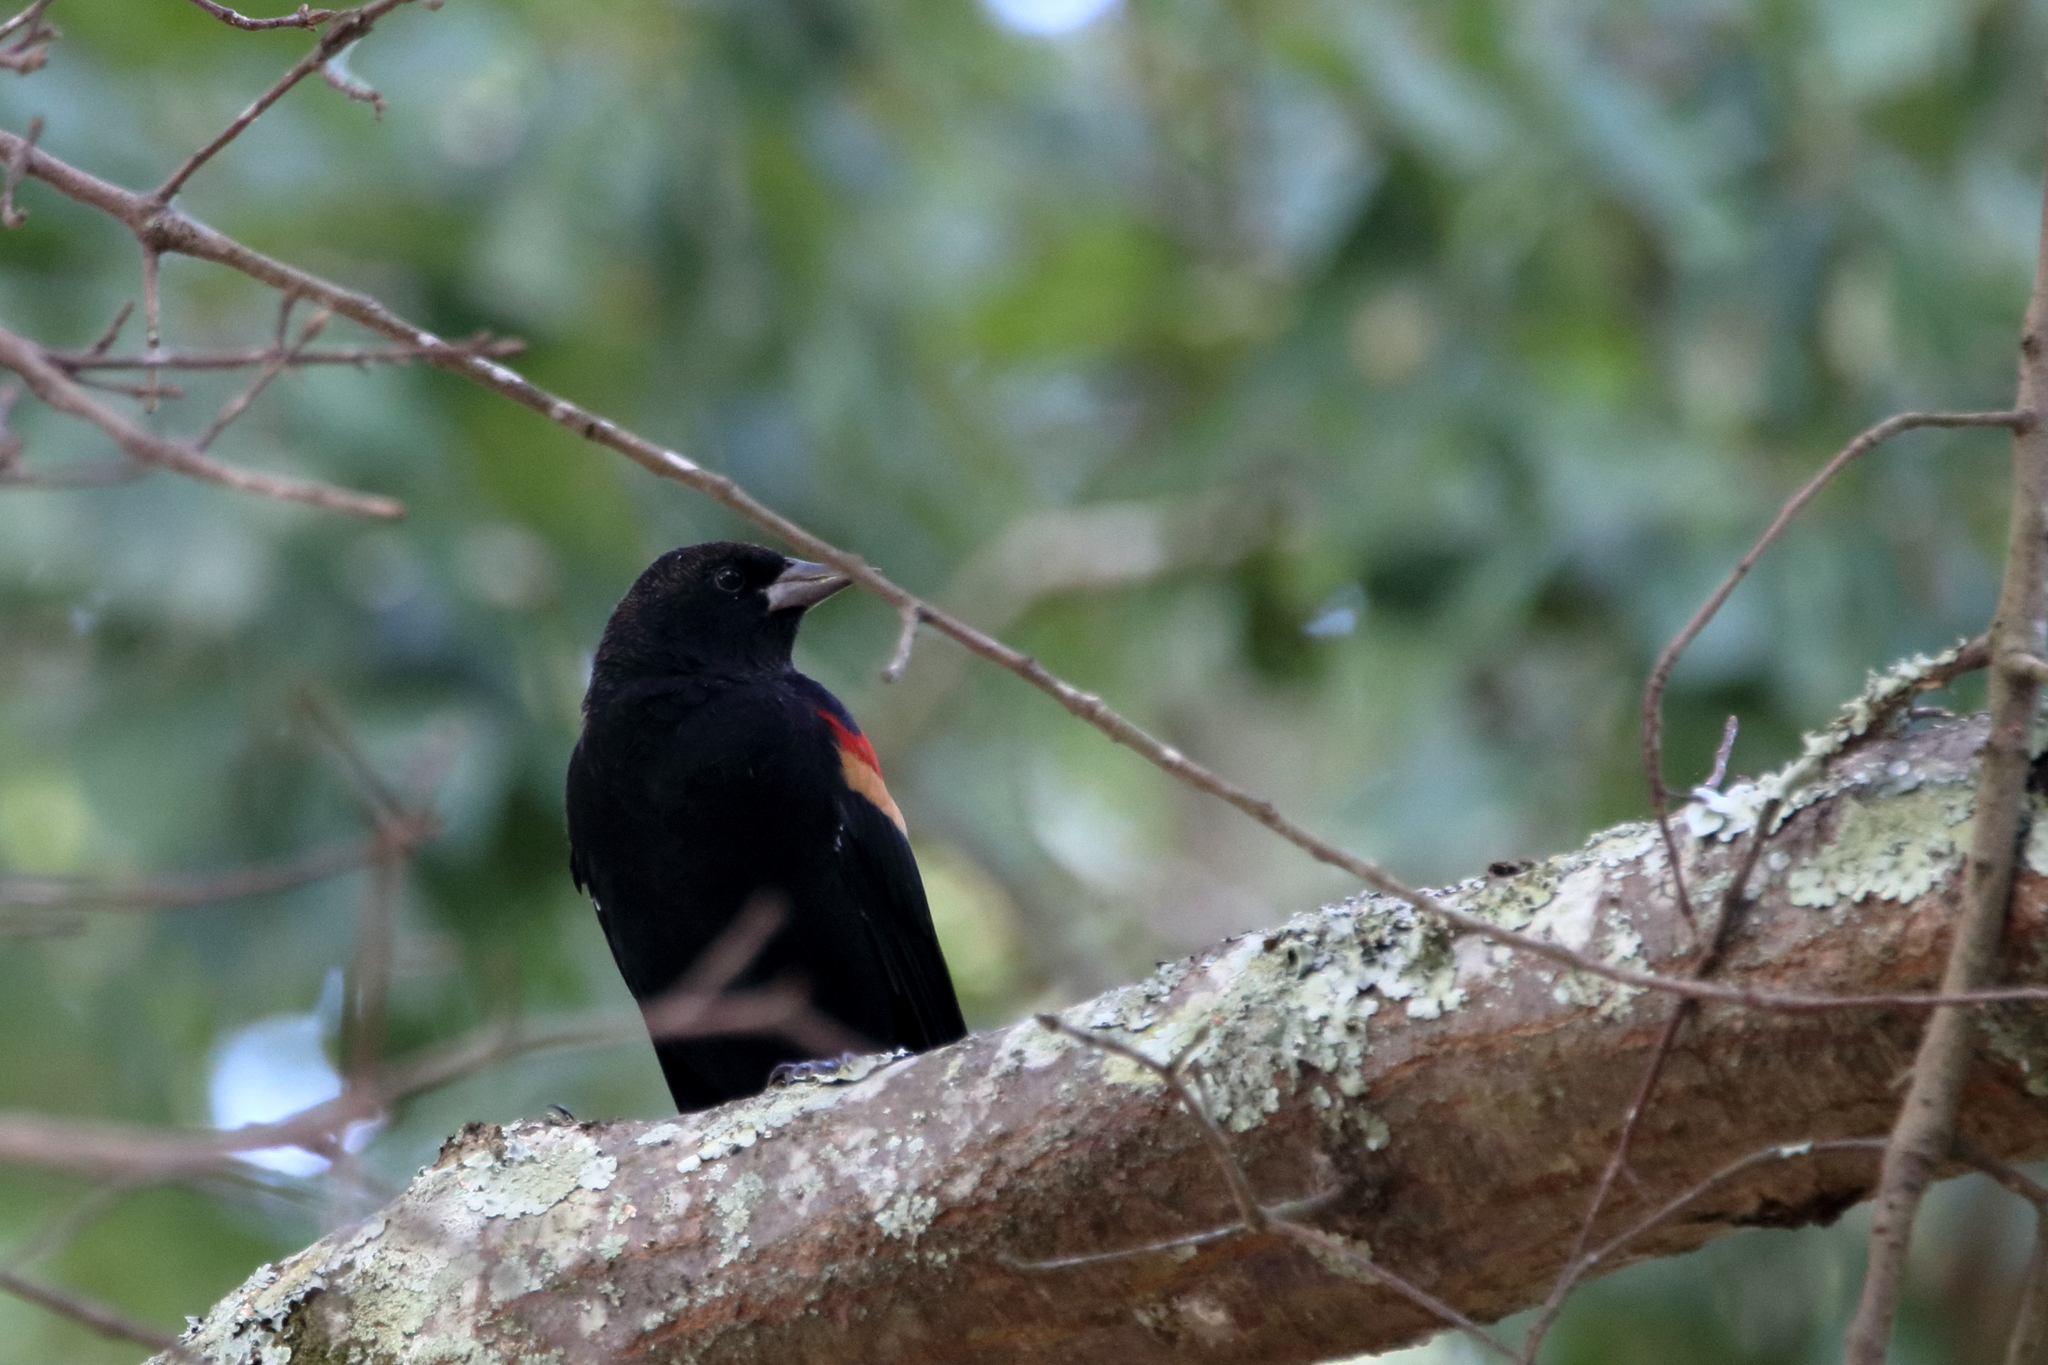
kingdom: Animalia
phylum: Chordata
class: Aves
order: Passeriformes
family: Icteridae
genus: Agelaius
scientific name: Agelaius phoeniceus
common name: Red-winged blackbird
